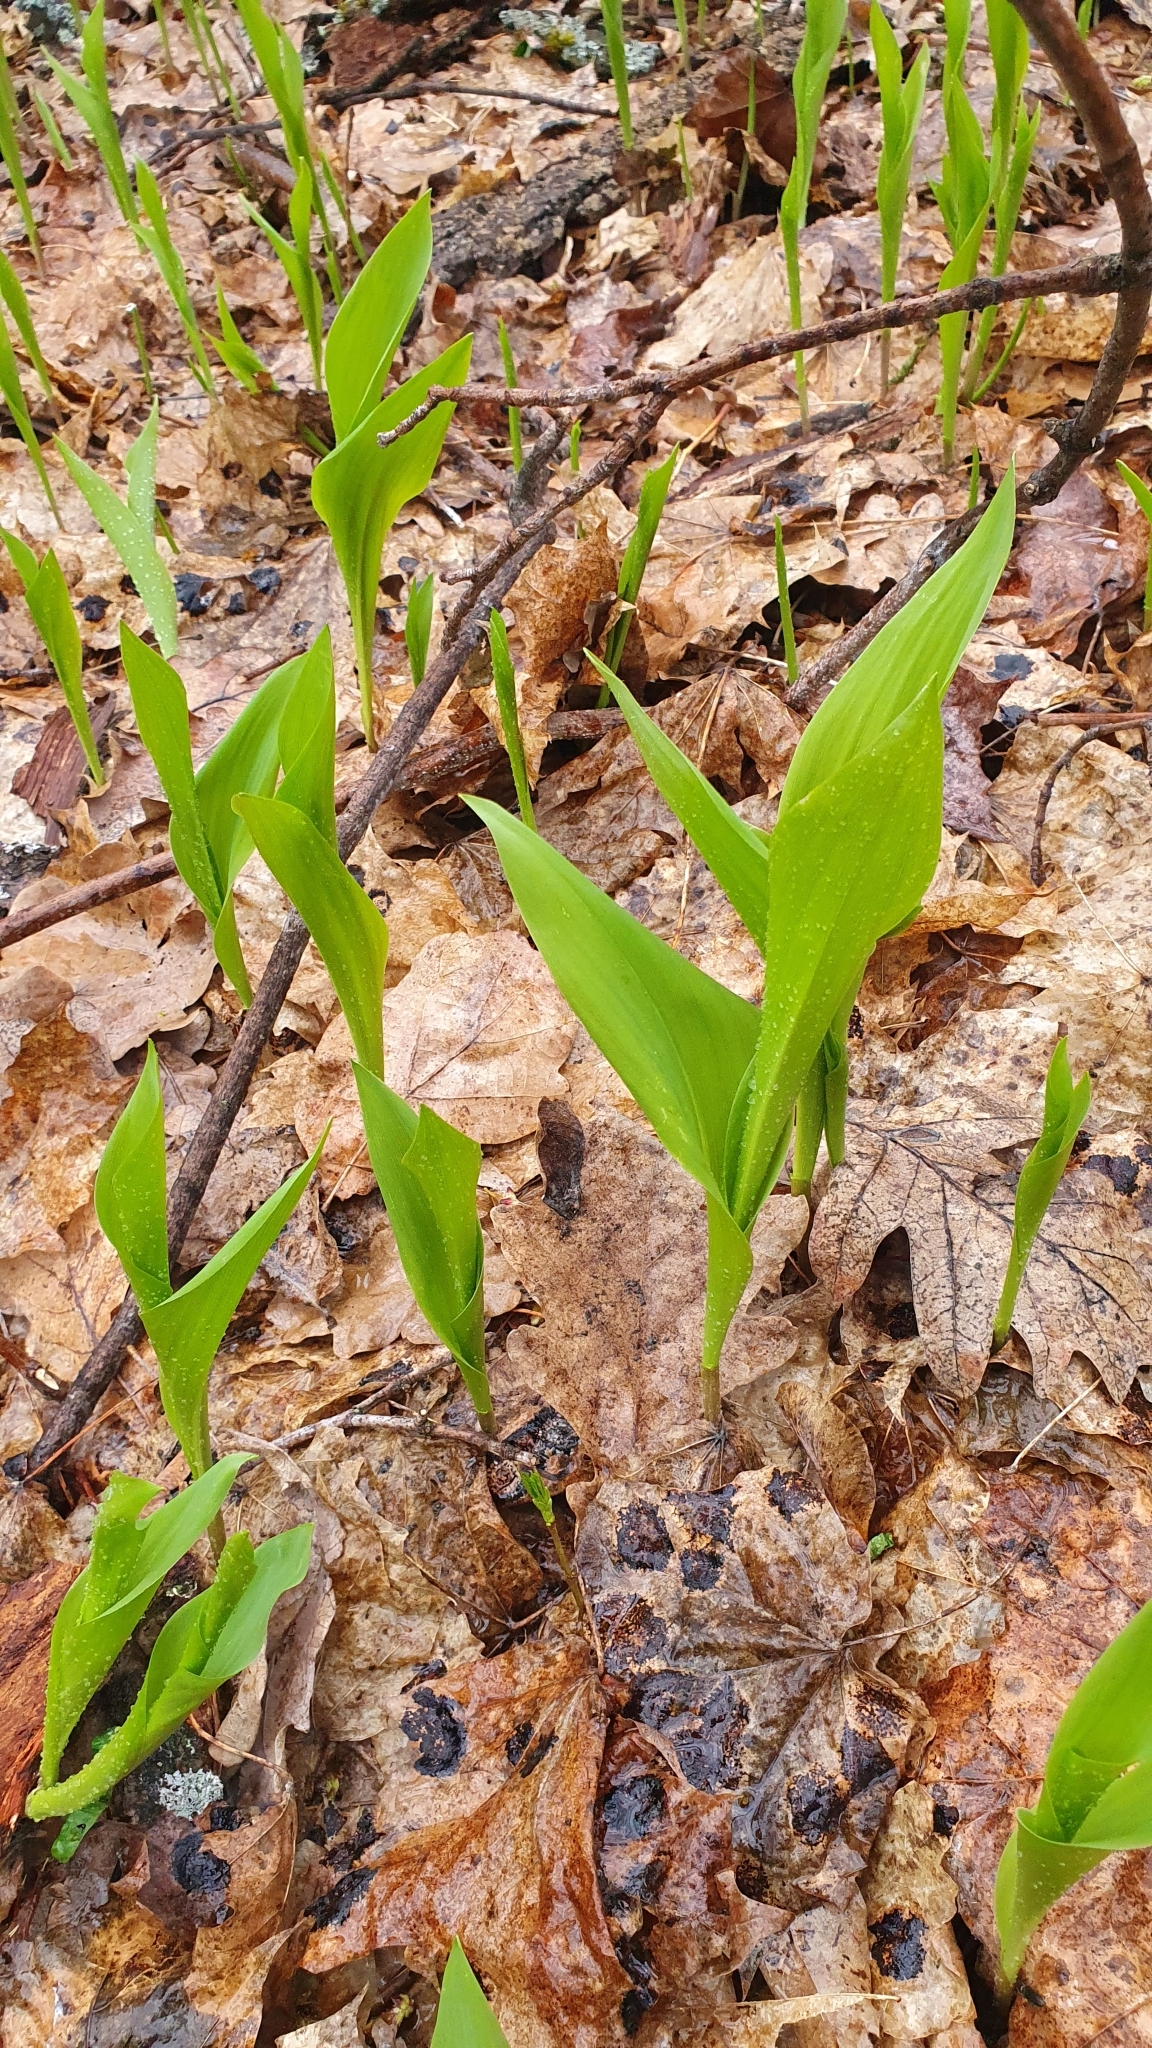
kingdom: Plantae
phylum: Tracheophyta
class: Liliopsida
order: Asparagales
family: Asparagaceae
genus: Convallaria
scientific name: Convallaria majalis
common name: Lily-of-the-valley
